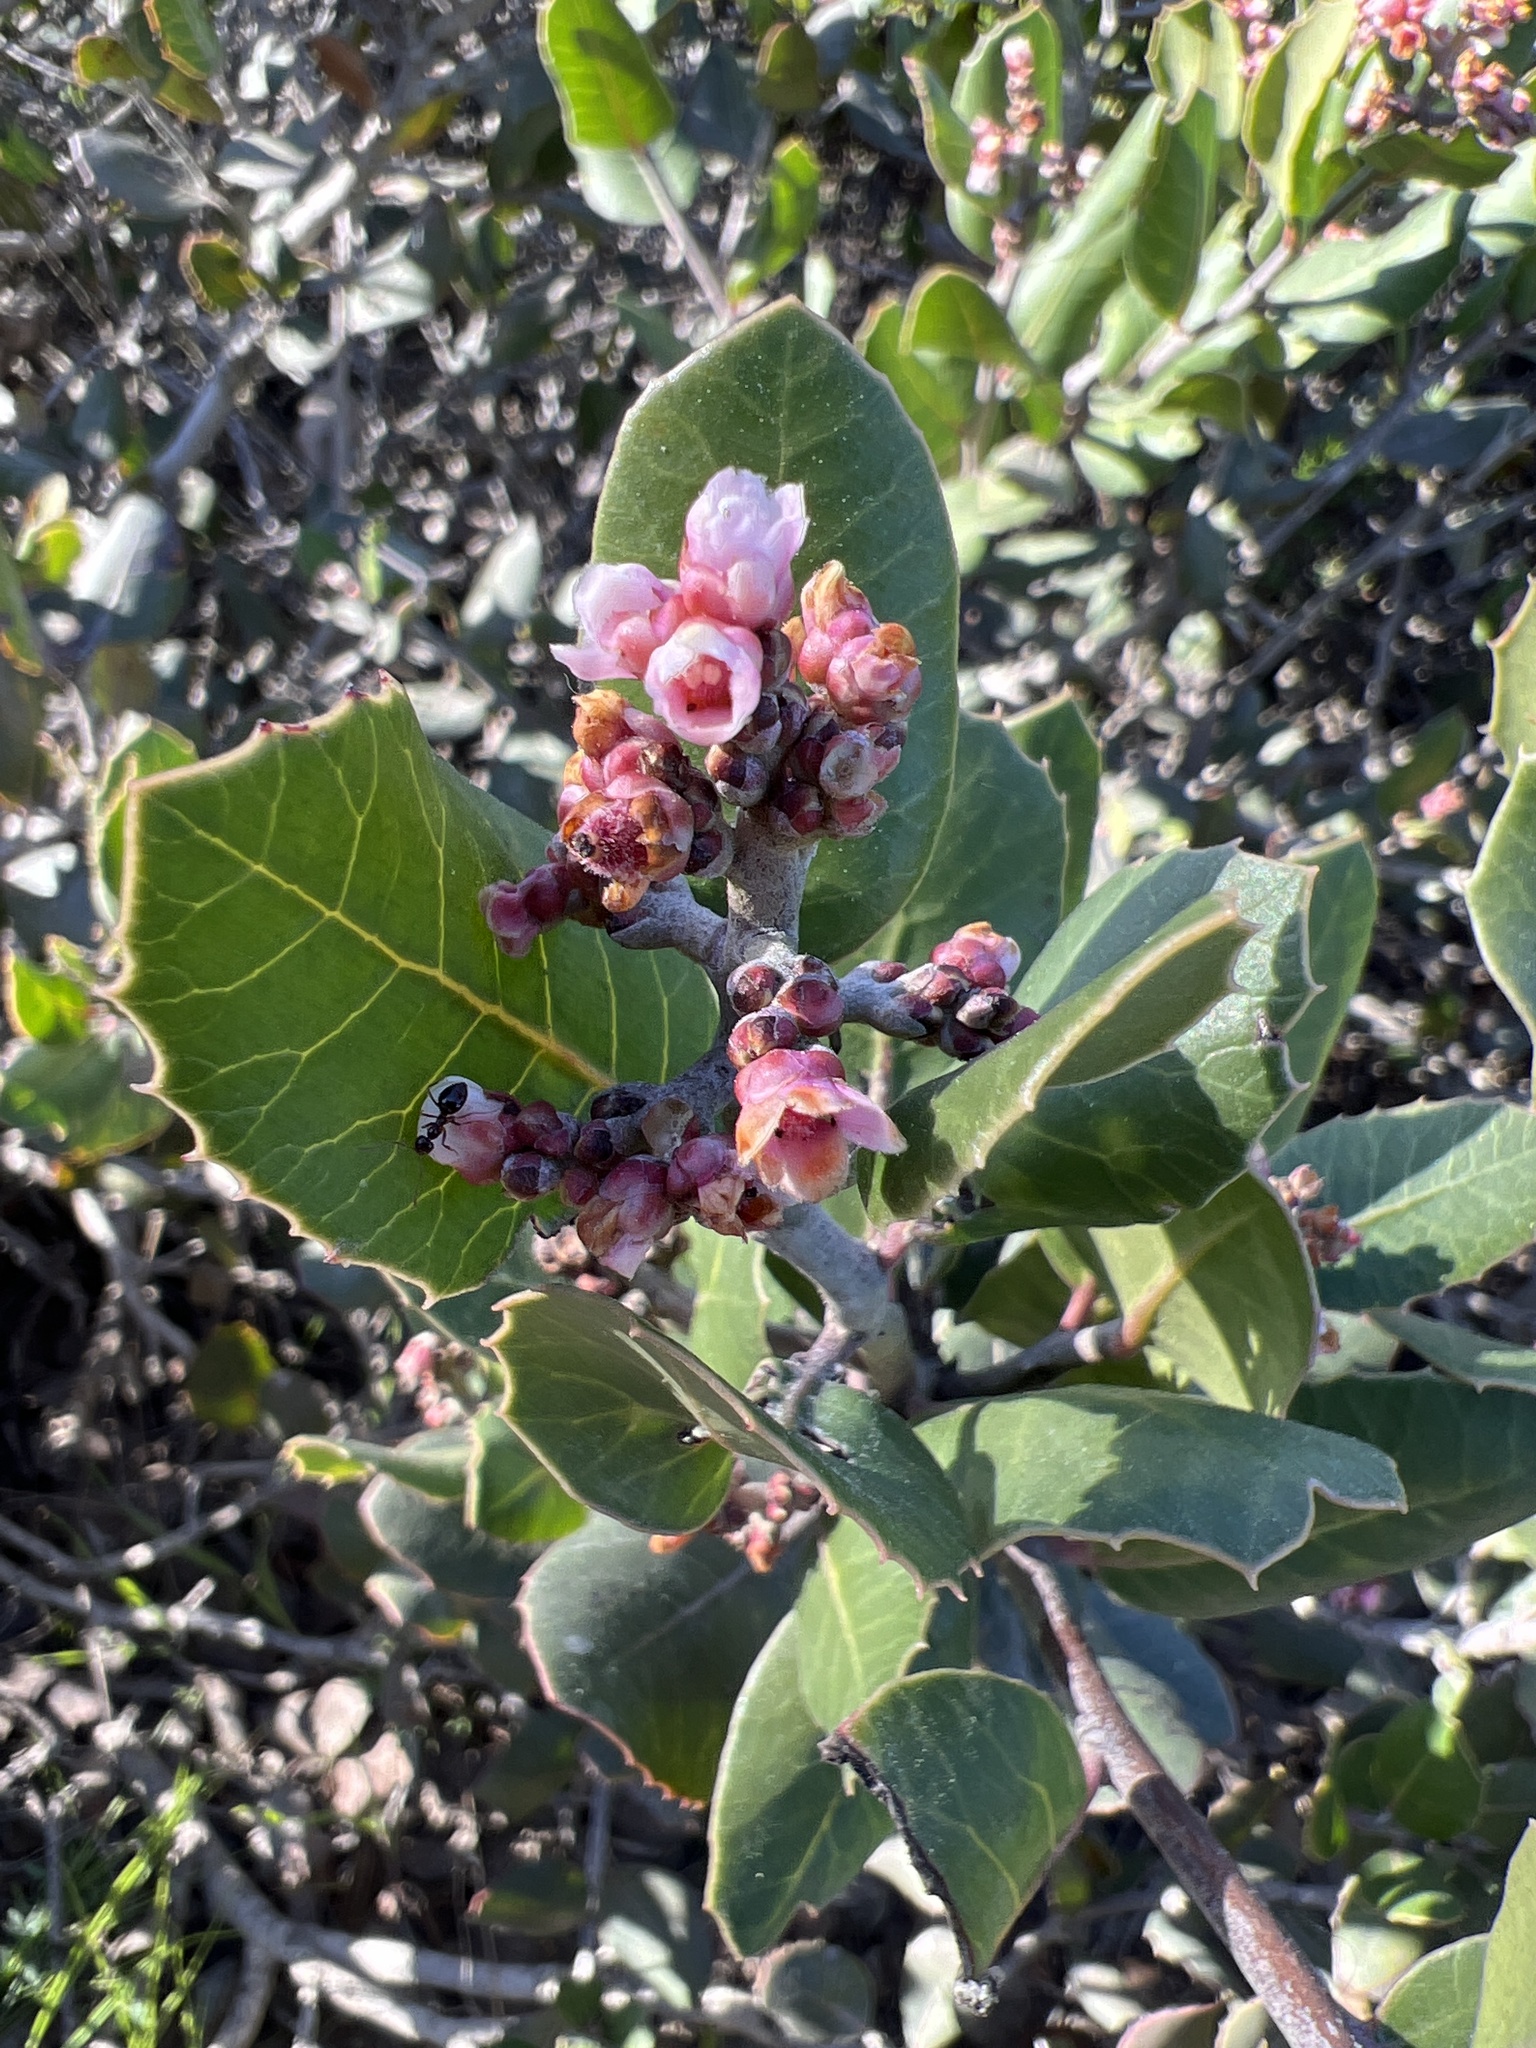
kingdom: Plantae
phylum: Tracheophyta
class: Magnoliopsida
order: Sapindales
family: Anacardiaceae
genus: Rhus
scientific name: Rhus integrifolia
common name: Lemonade sumac
